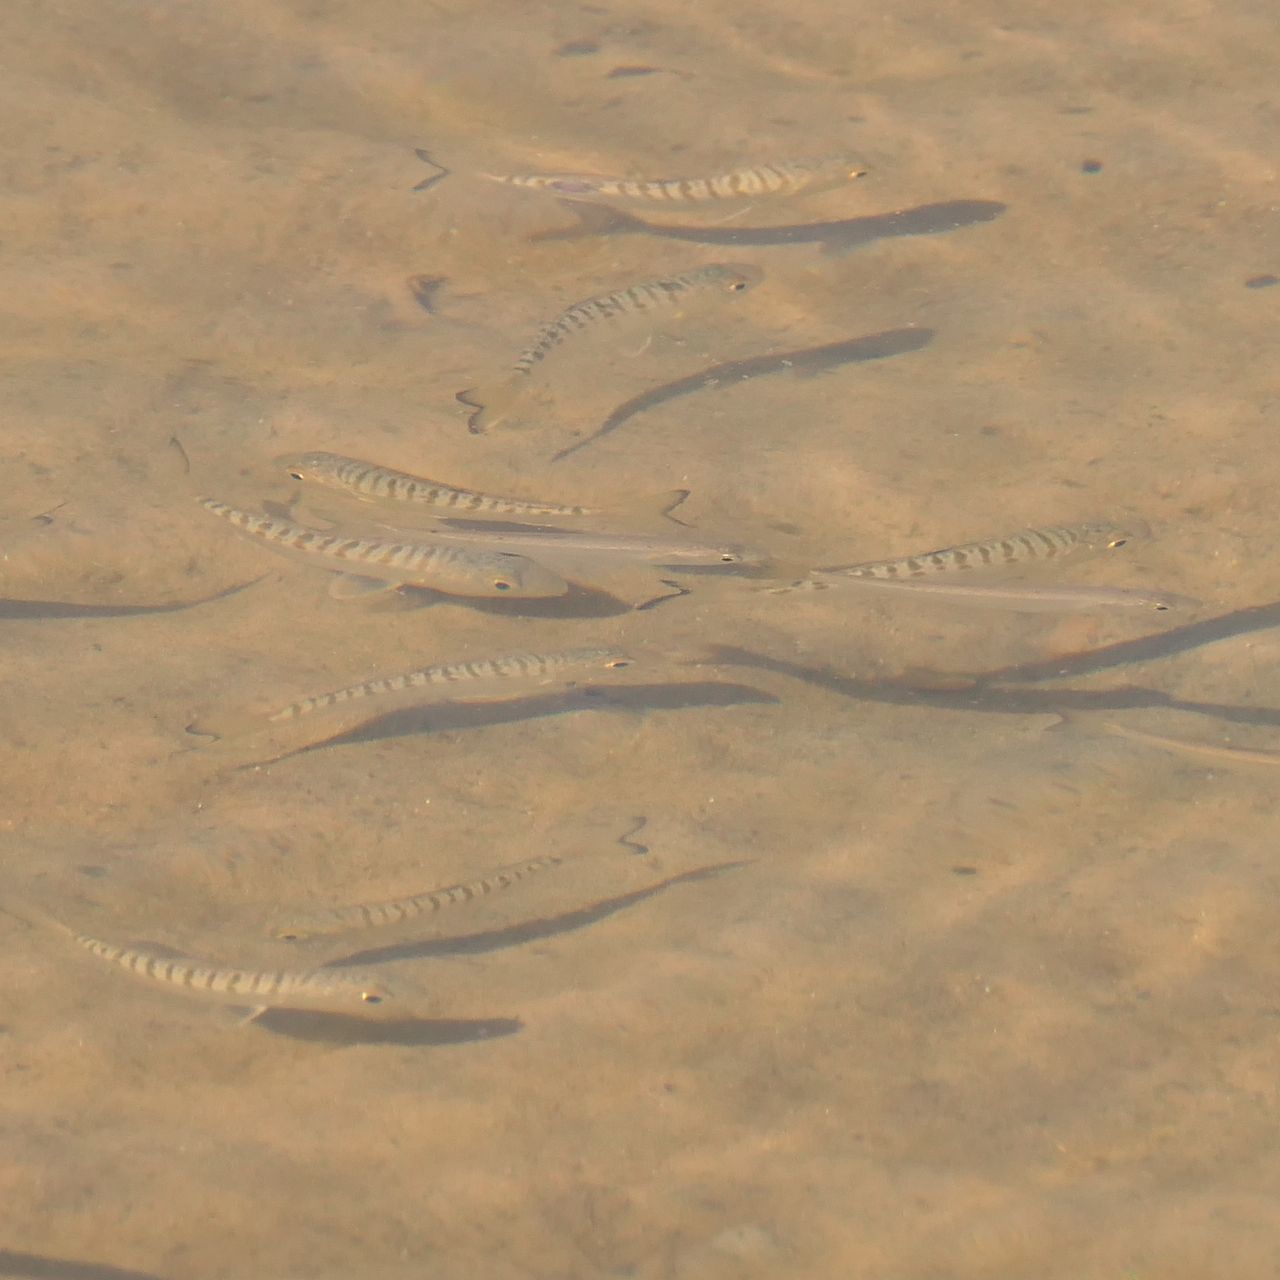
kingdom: Animalia
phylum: Chordata
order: Perciformes
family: Arripidae
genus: Arripis
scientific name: Arripis trutta
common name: Kahawai
